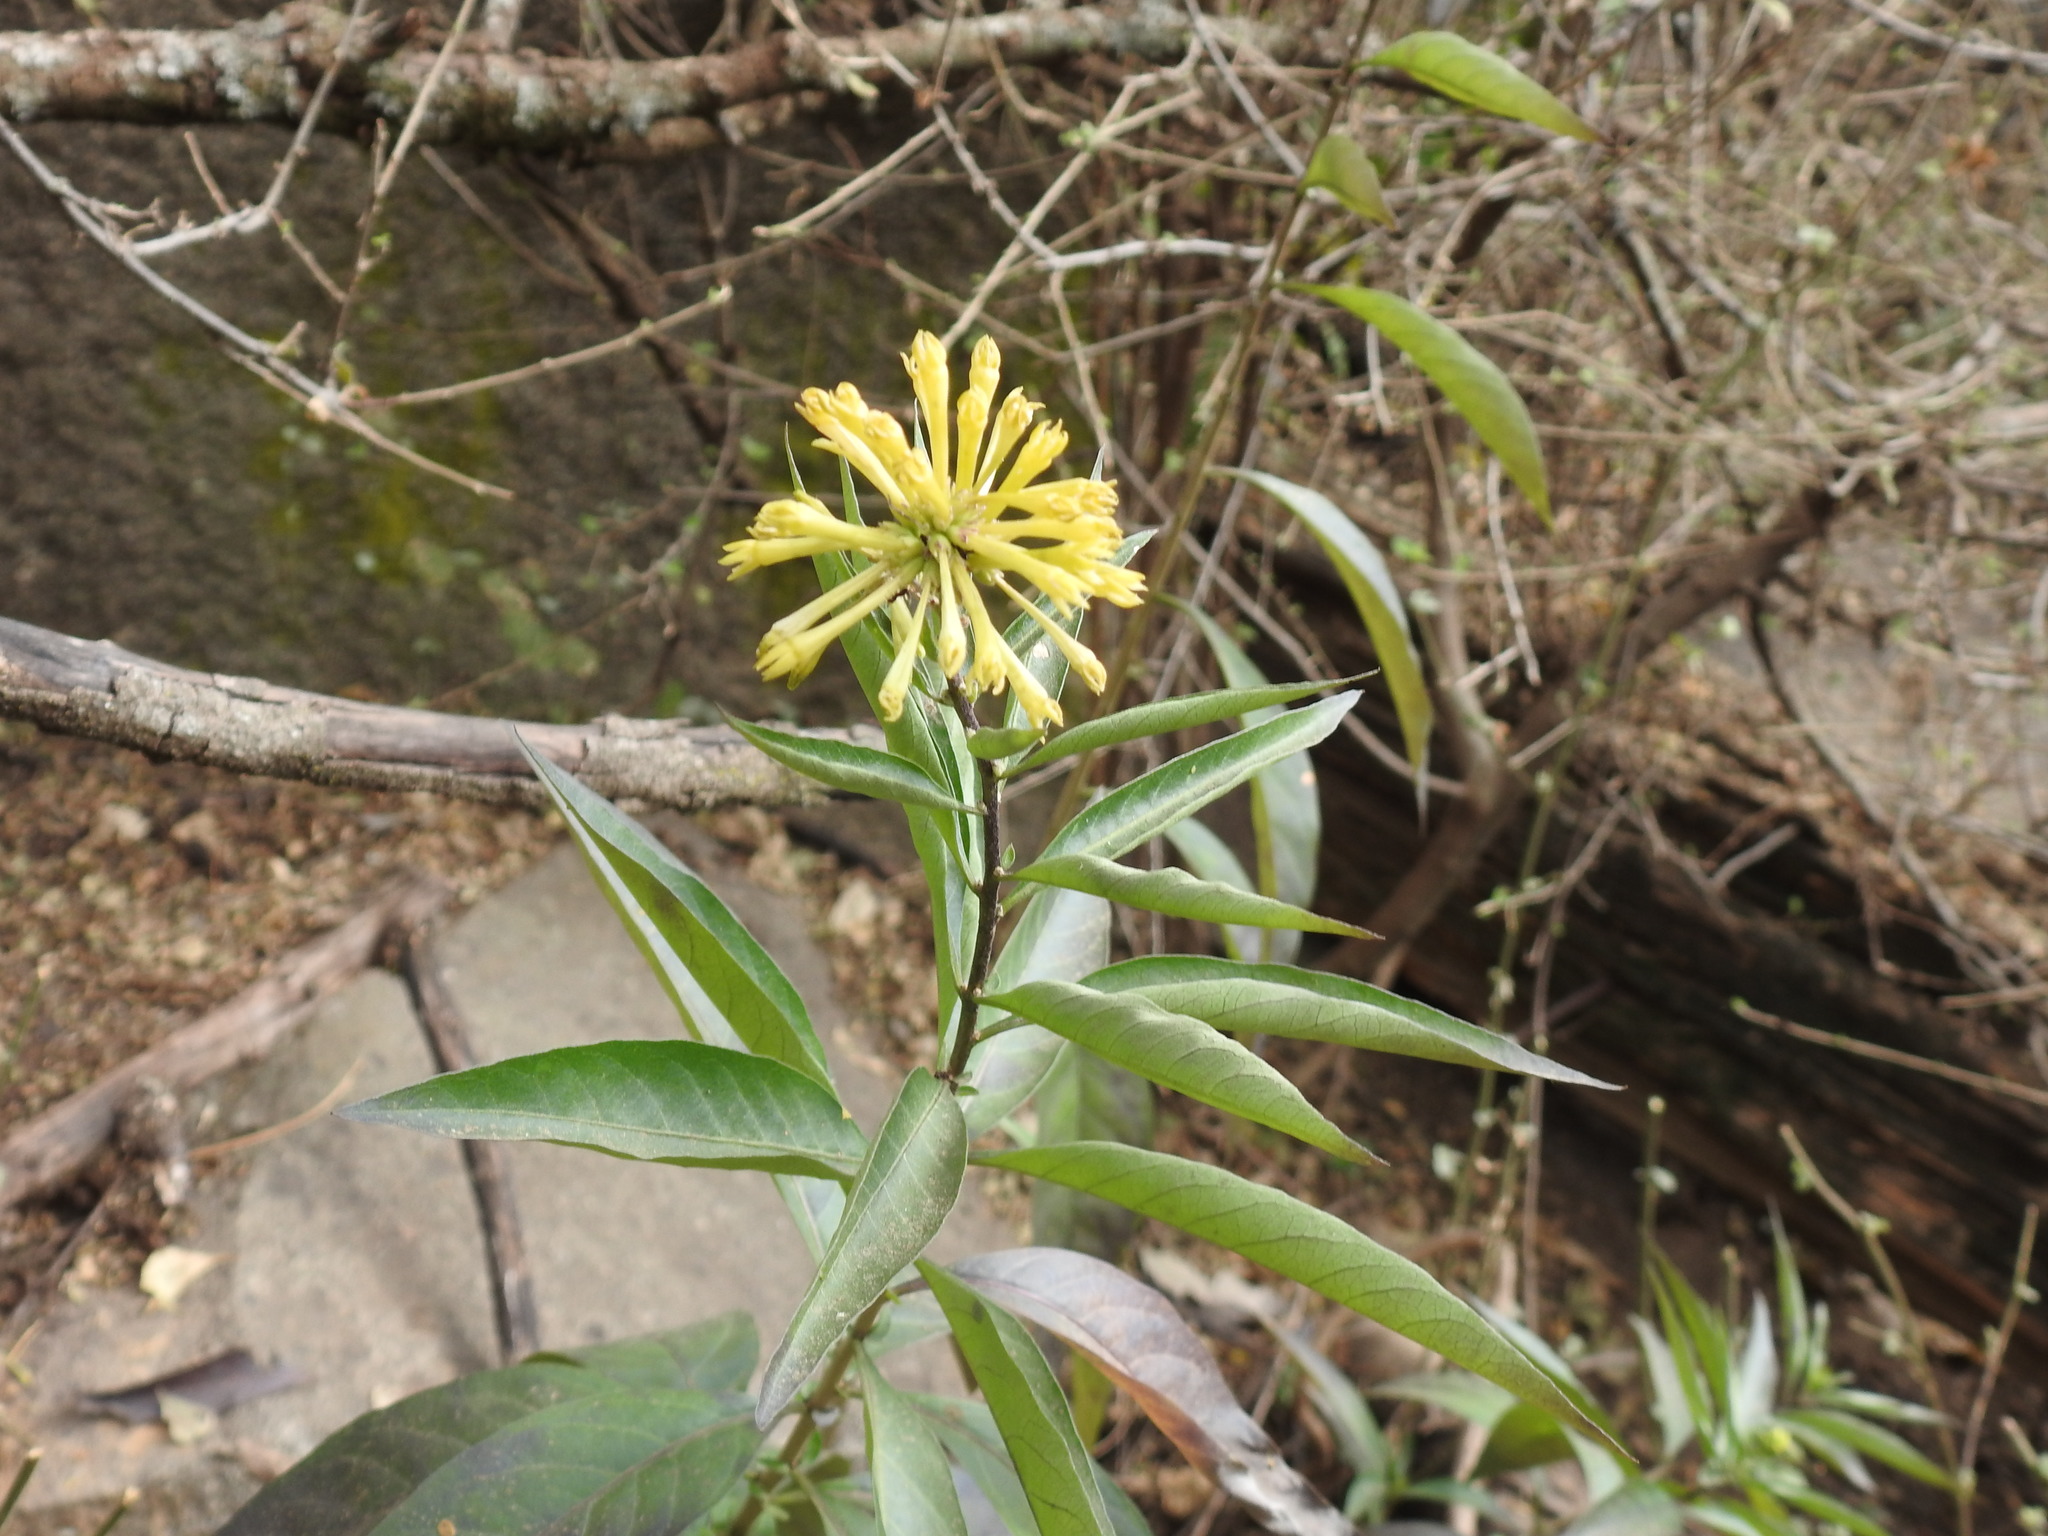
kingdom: Plantae
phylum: Tracheophyta
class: Magnoliopsida
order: Solanales
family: Solanaceae
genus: Cestrum
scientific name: Cestrum parqui
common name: Chilean cestrum
